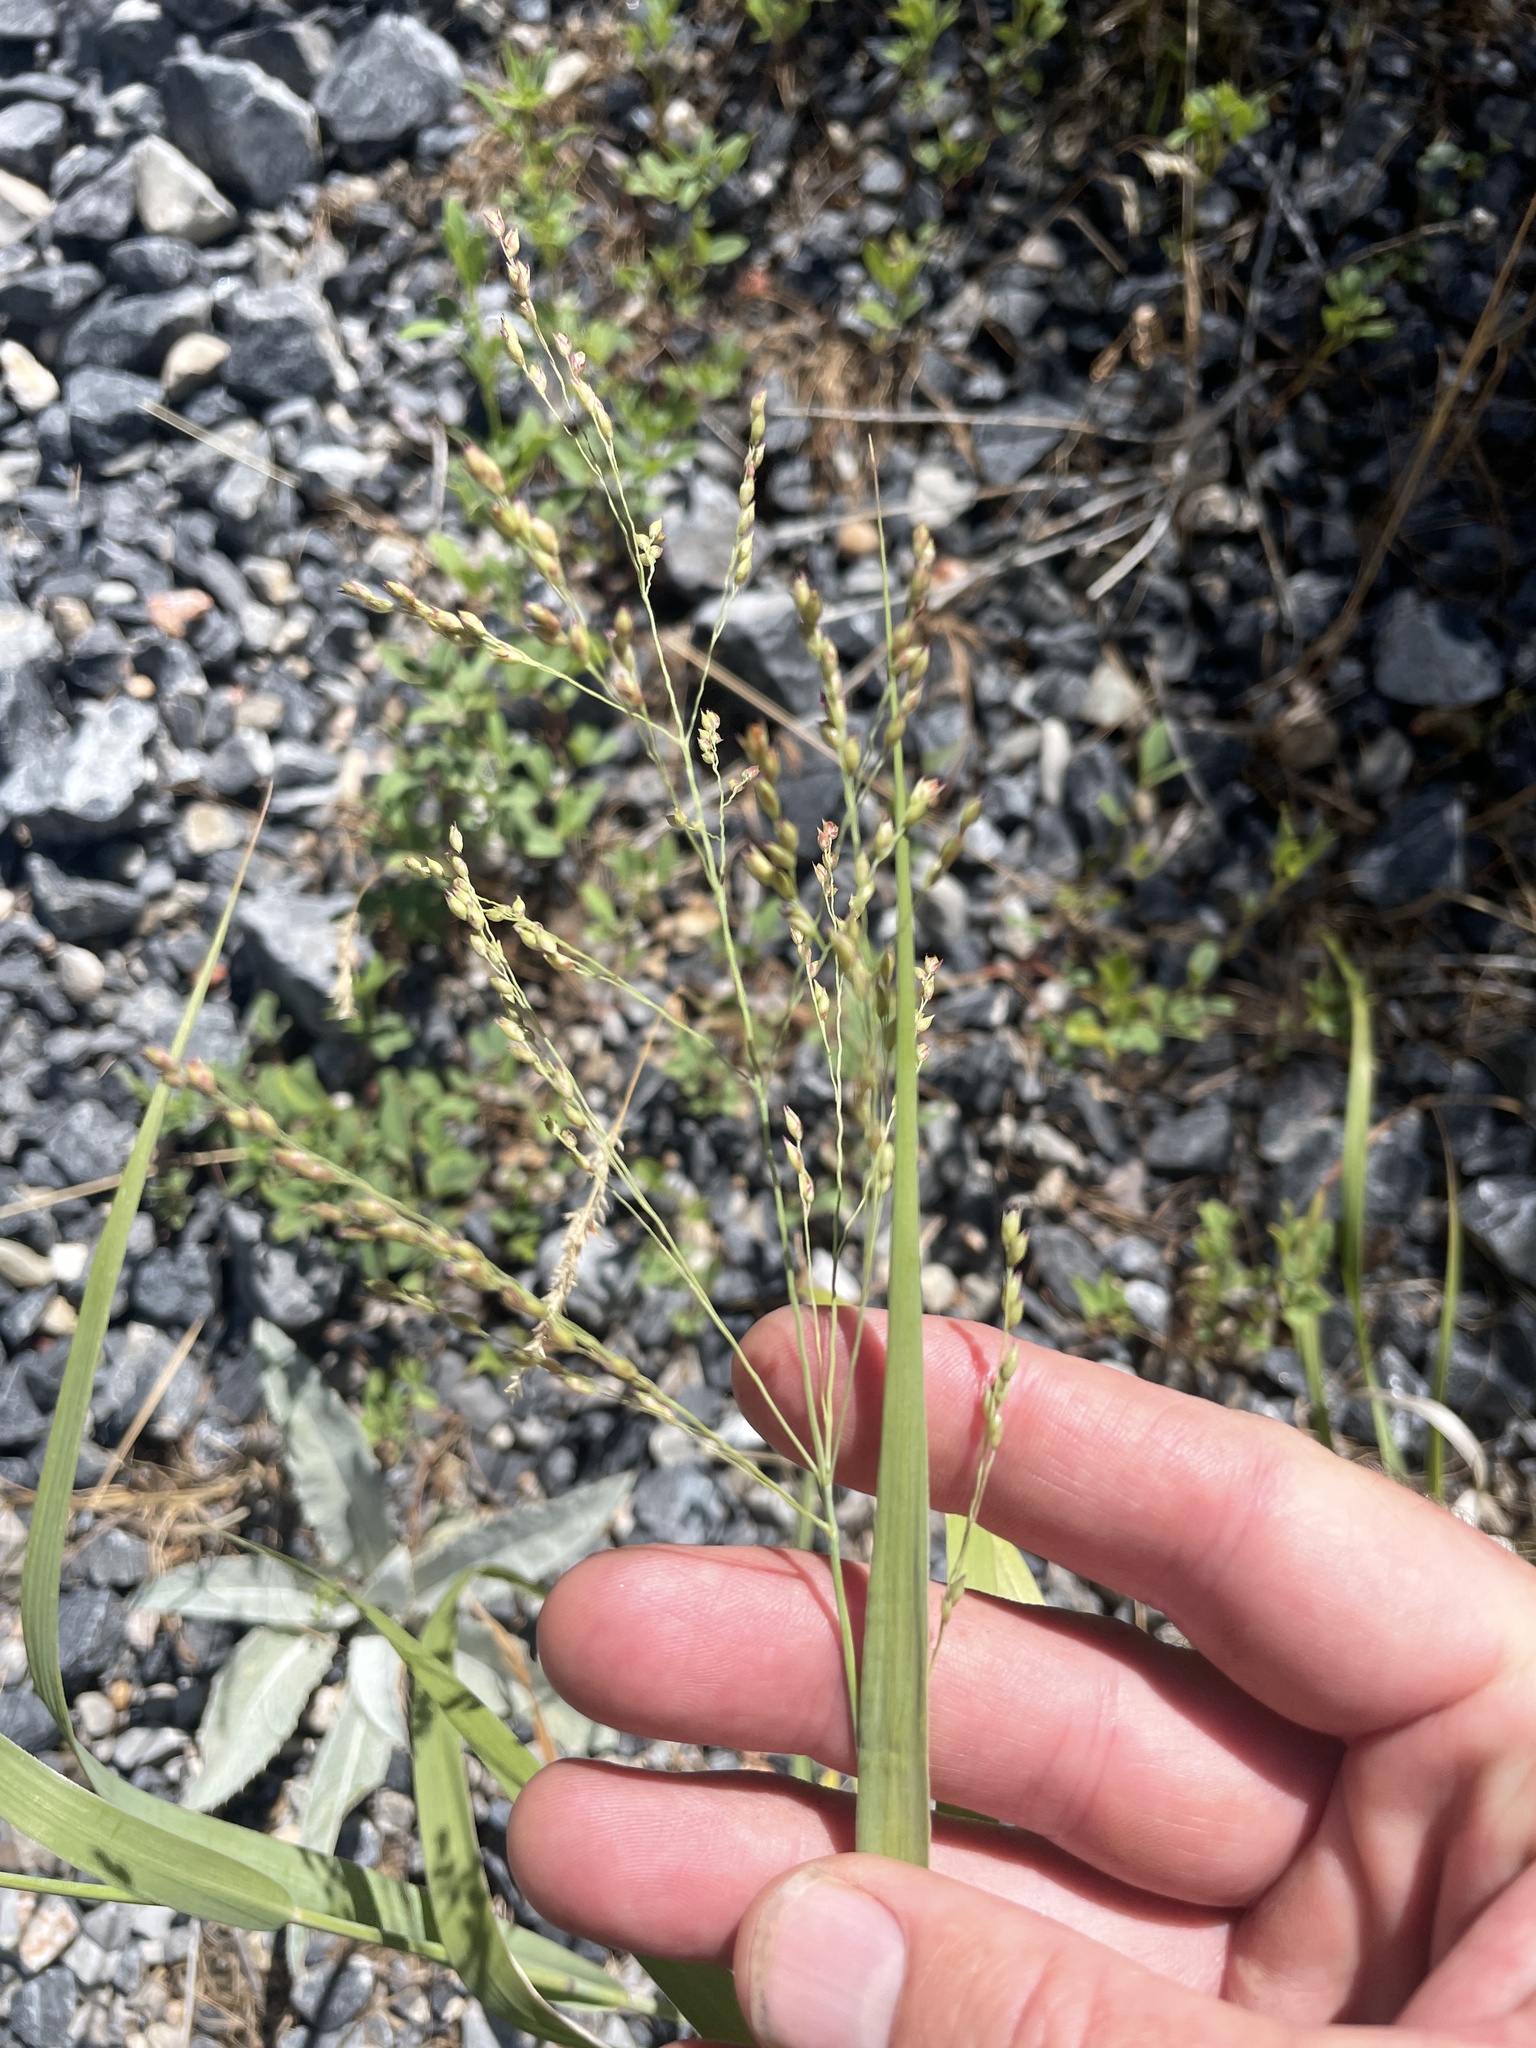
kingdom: Plantae
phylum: Tracheophyta
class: Liliopsida
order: Poales
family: Poaceae
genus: Panicum
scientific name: Panicum virgatum
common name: Switchgrass
